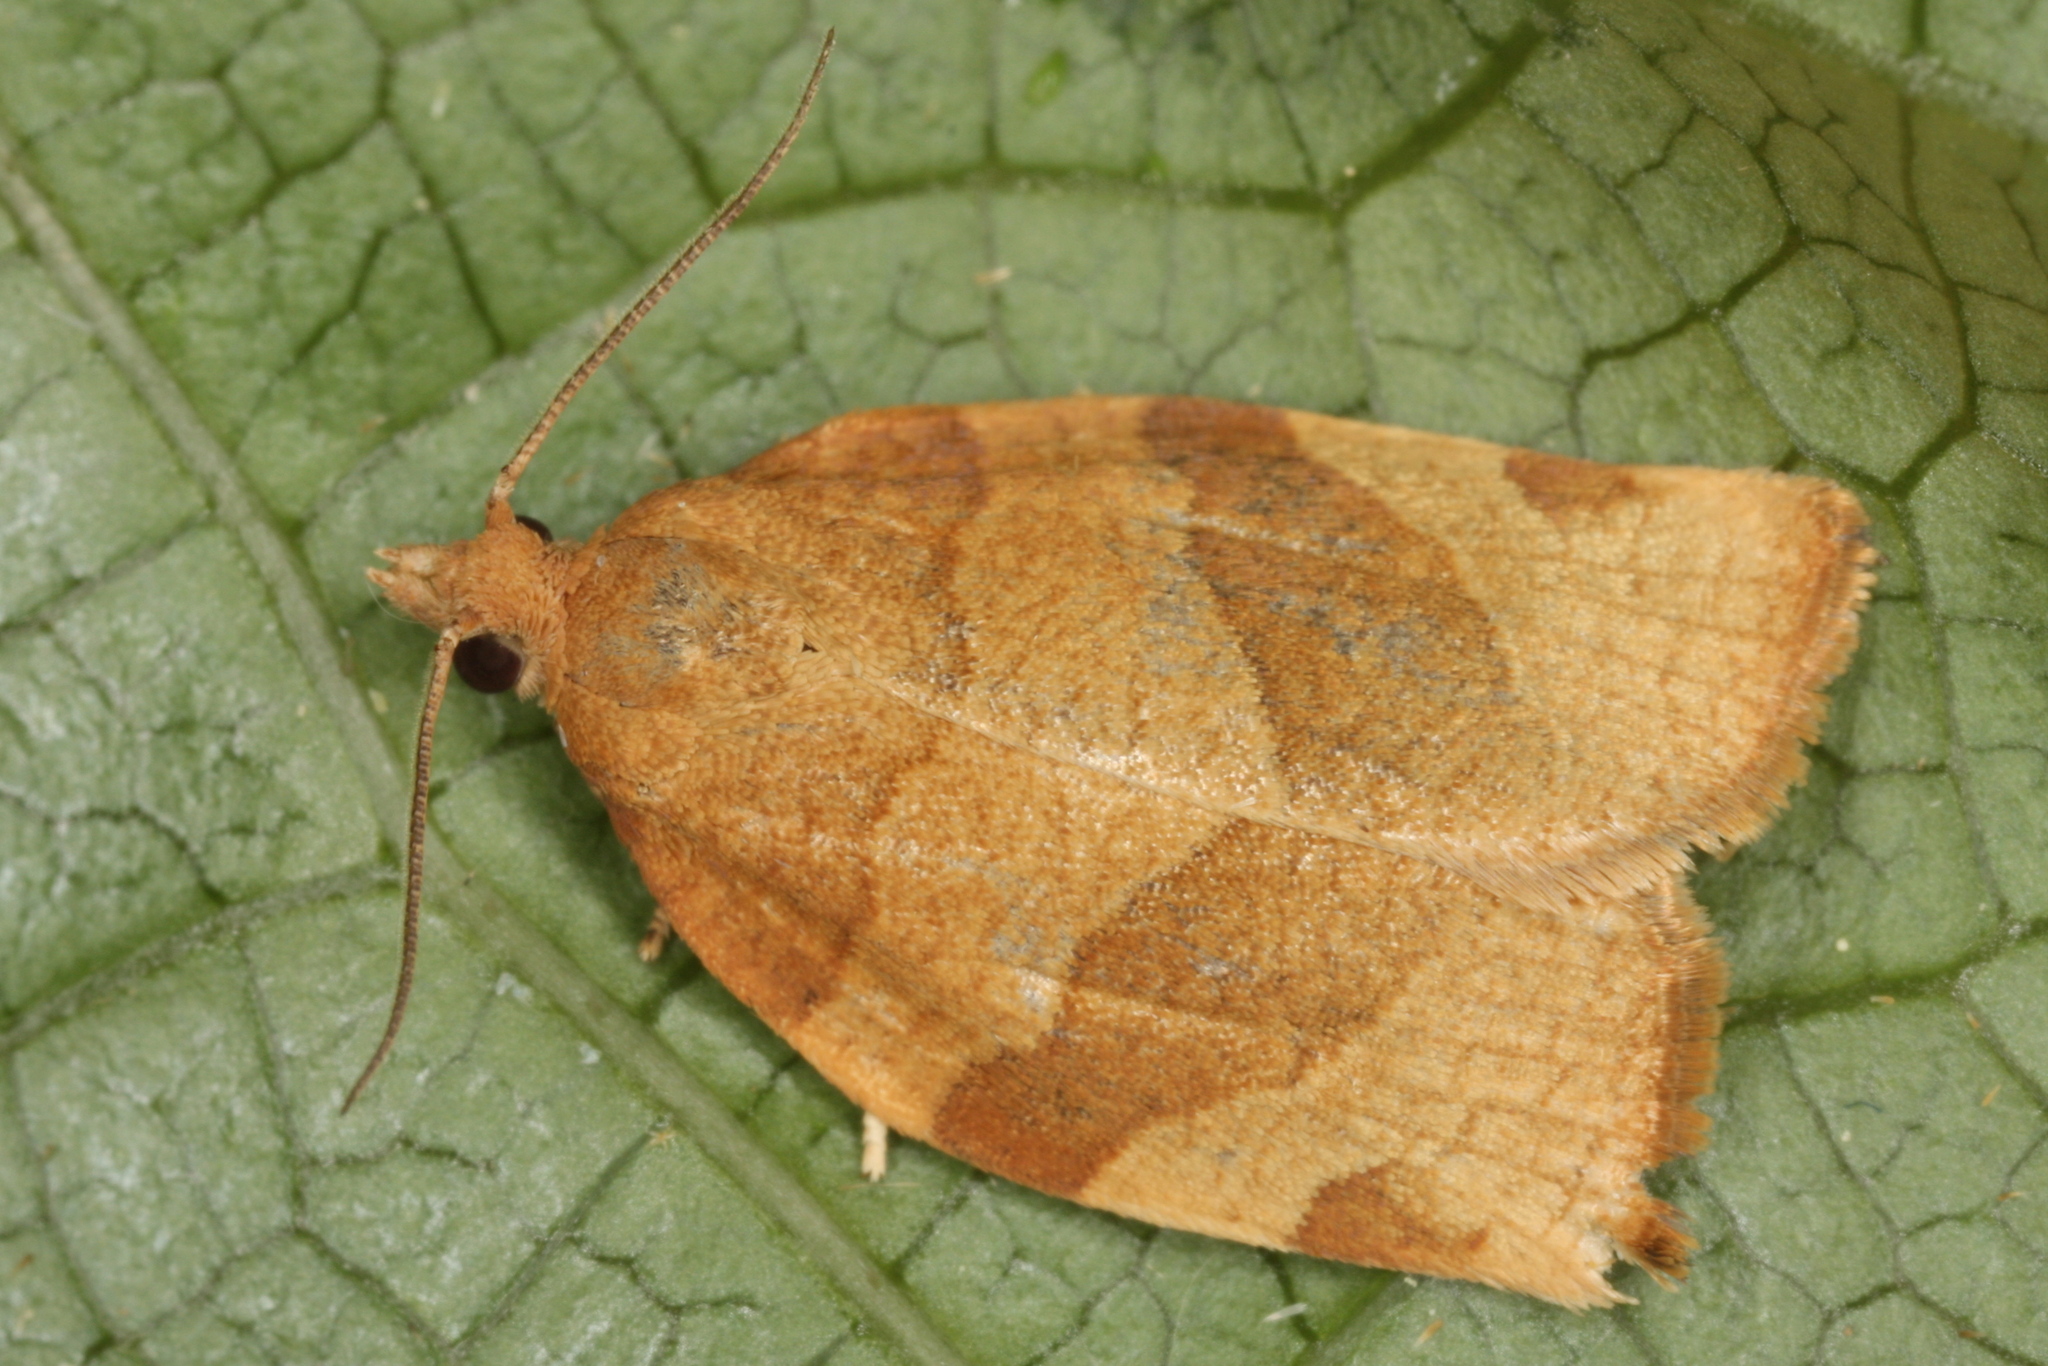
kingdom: Animalia
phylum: Arthropoda
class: Insecta
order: Lepidoptera
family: Tortricidae
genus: Pandemis
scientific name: Pandemis cerasana
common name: Barred fruit-tree tortrix
